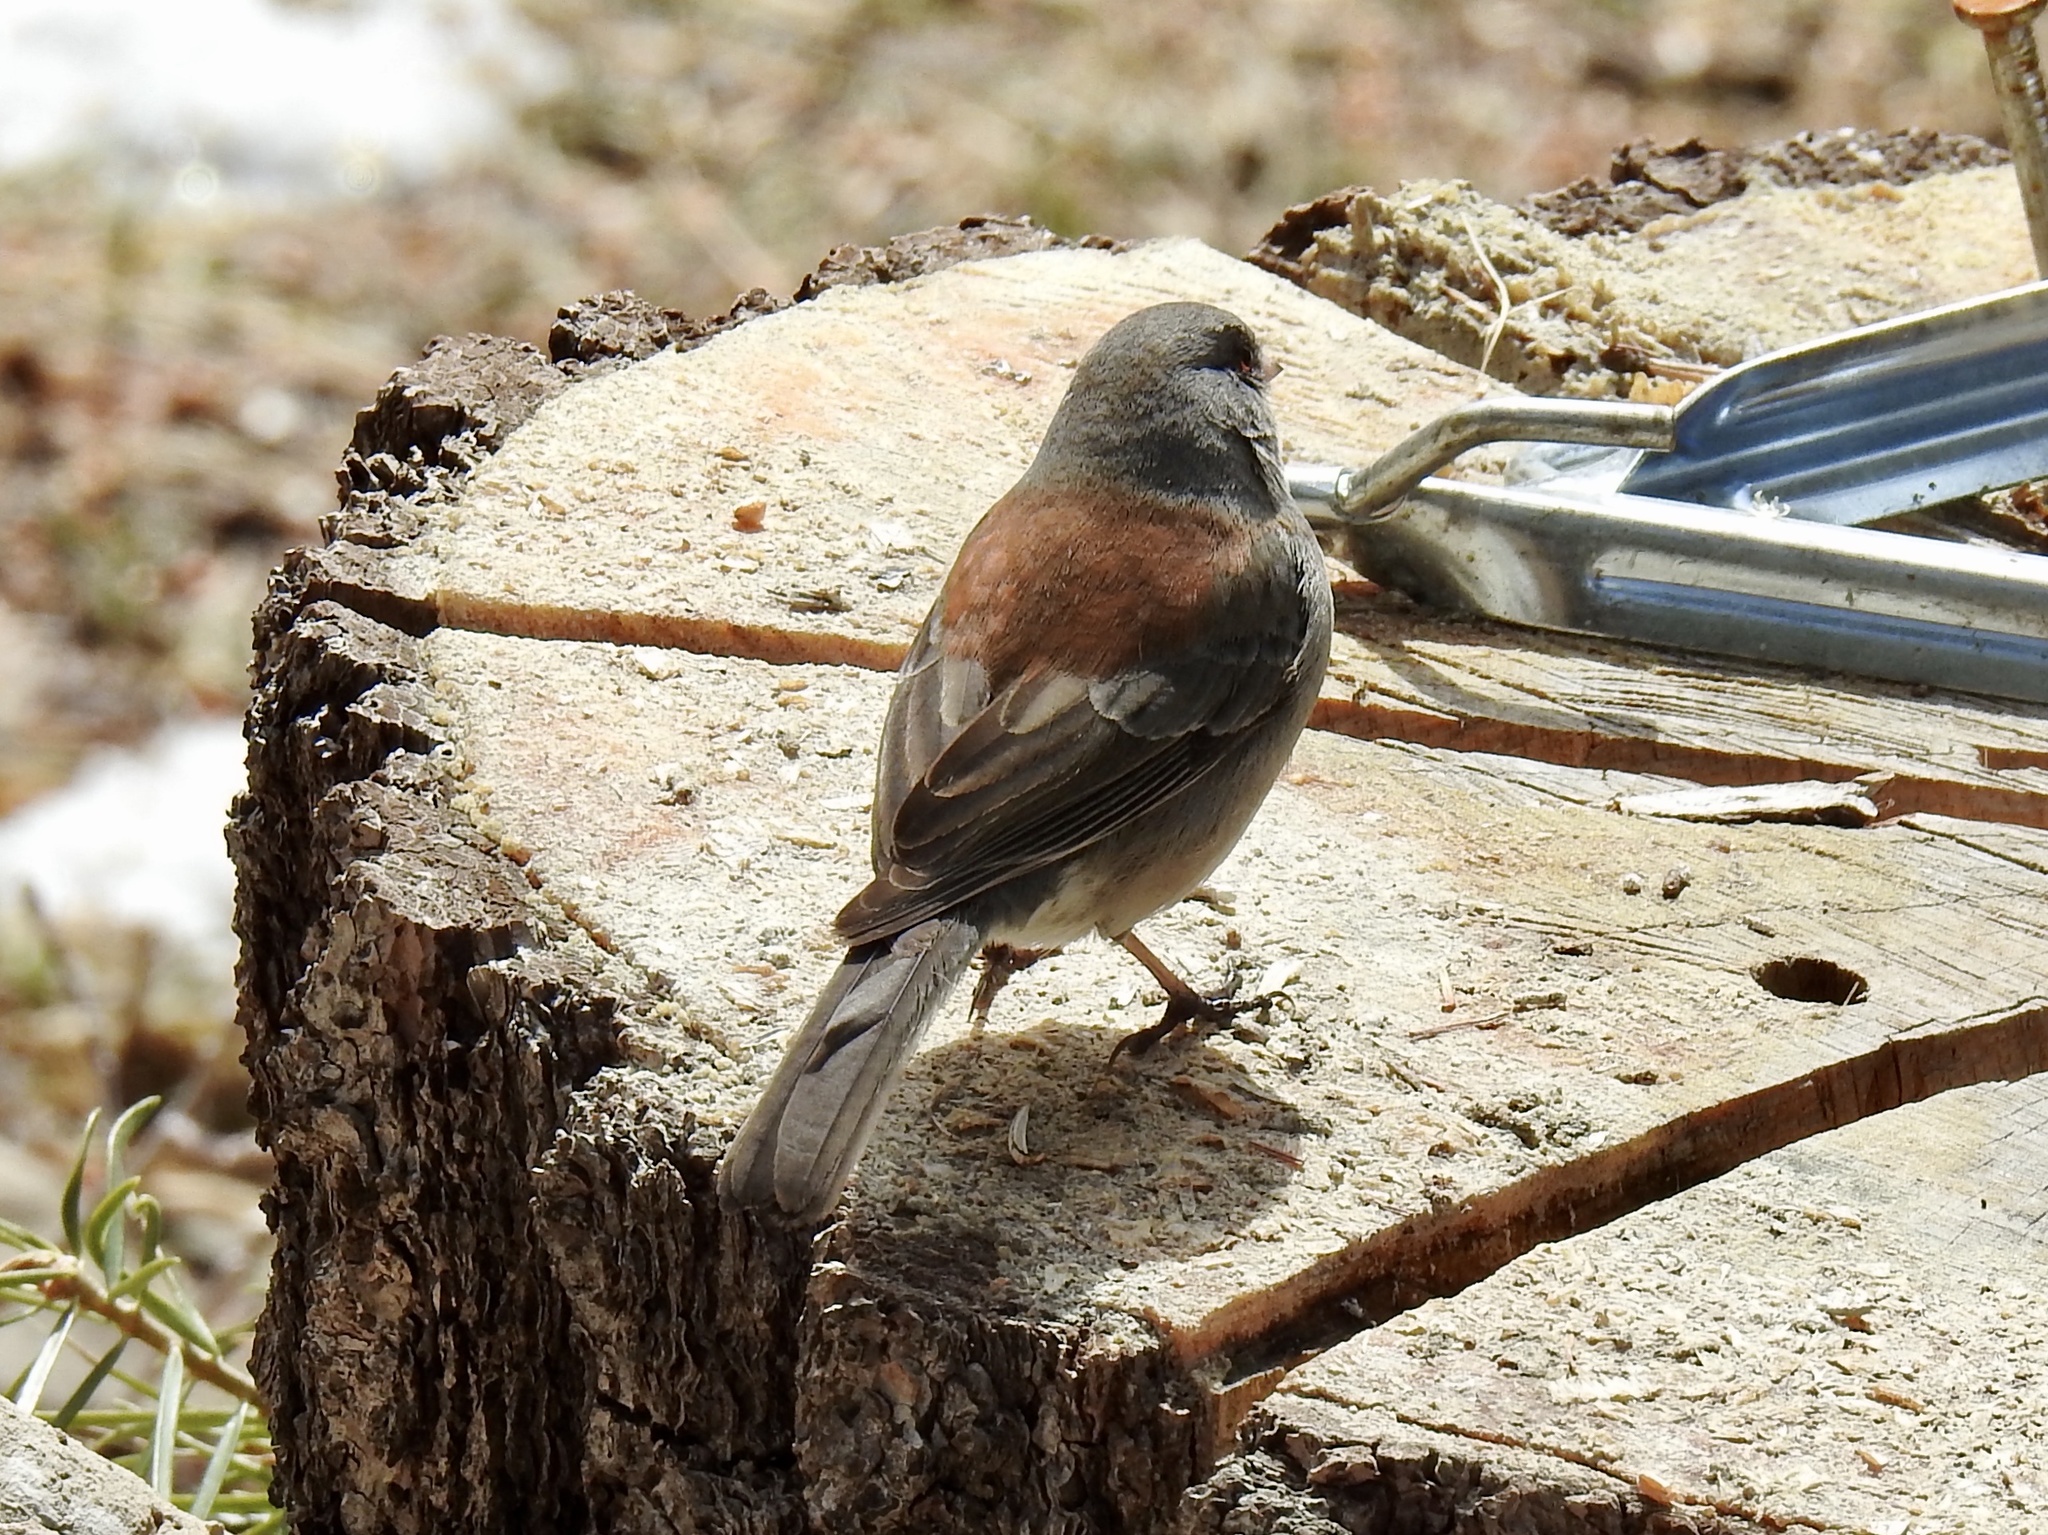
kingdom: Animalia
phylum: Chordata
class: Aves
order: Passeriformes
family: Passerellidae
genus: Junco
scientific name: Junco hyemalis
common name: Dark-eyed junco
